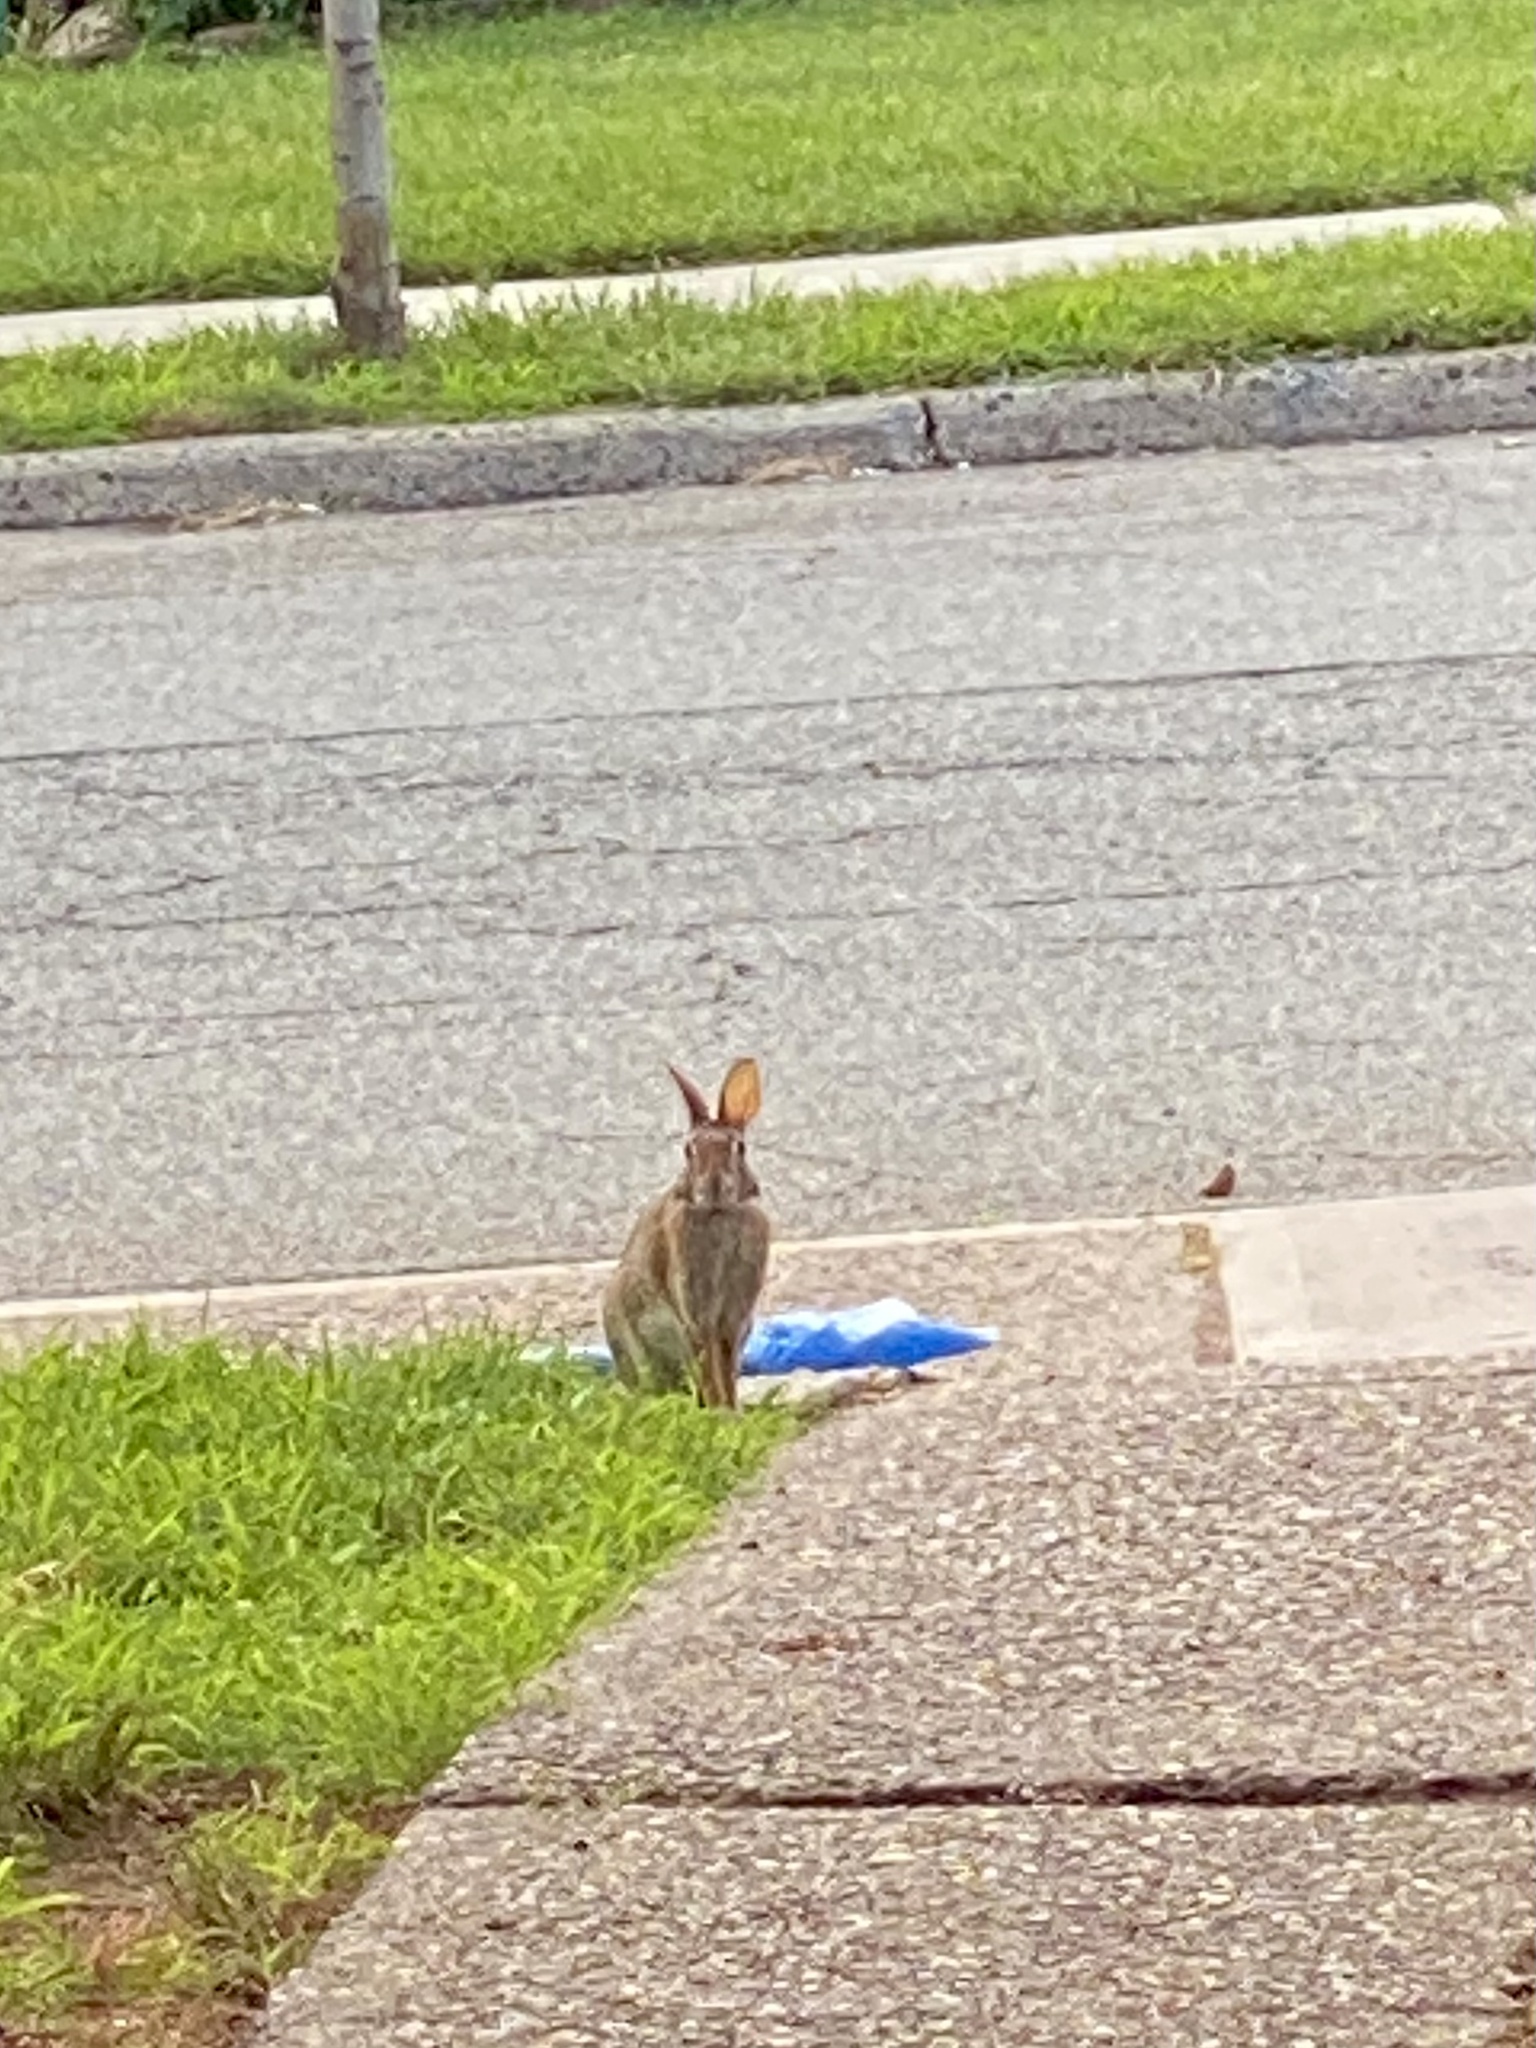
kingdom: Animalia
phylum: Chordata
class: Mammalia
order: Lagomorpha
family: Leporidae
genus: Sylvilagus
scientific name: Sylvilagus floridanus
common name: Eastern cottontail
